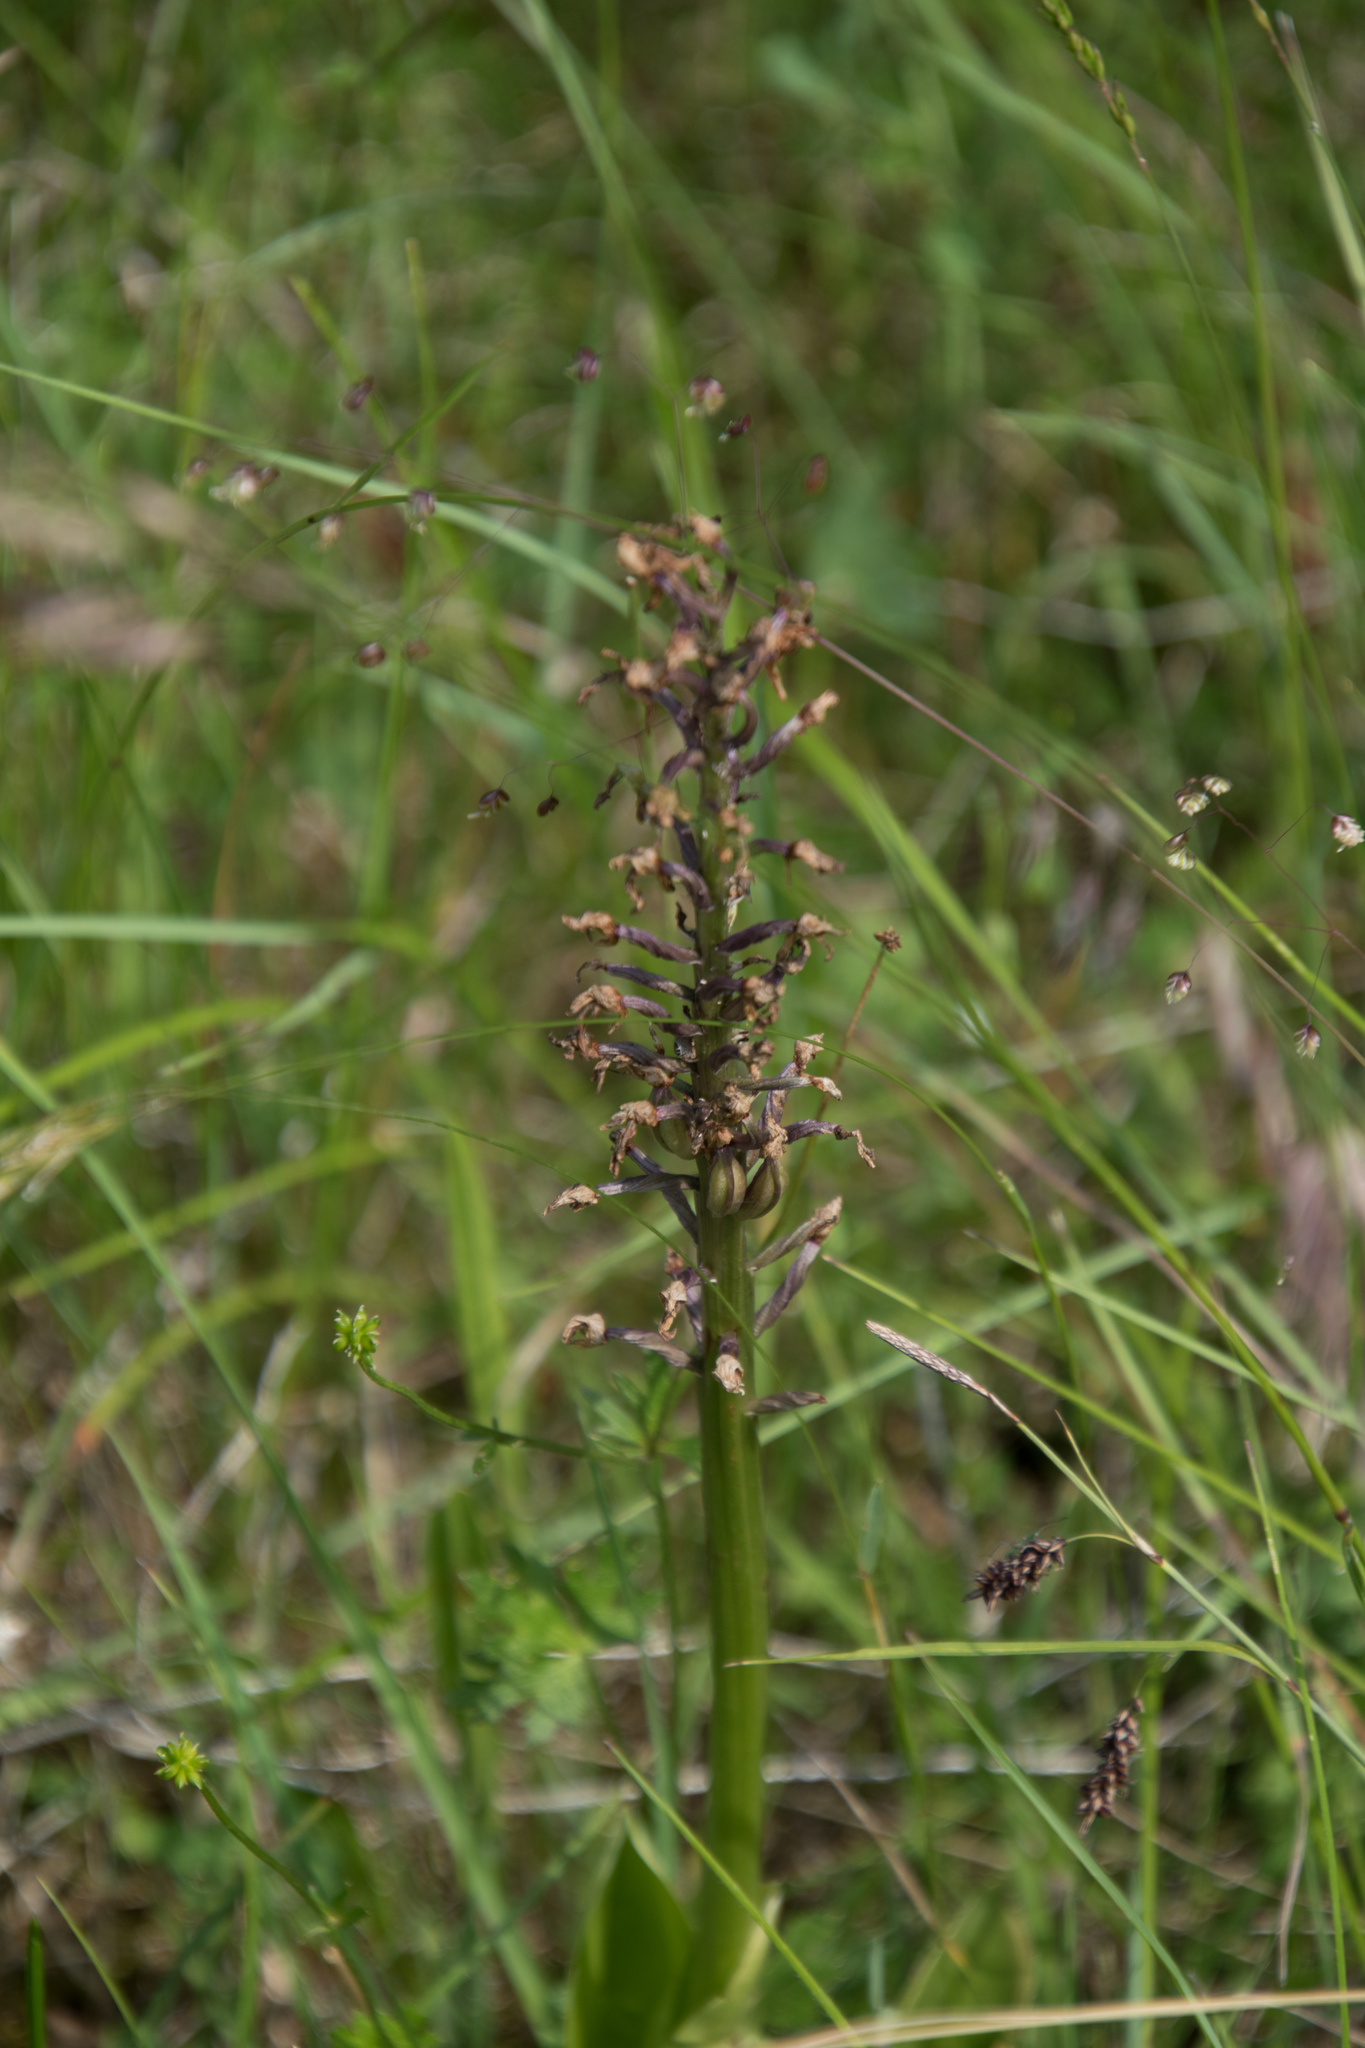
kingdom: Plantae
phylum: Tracheophyta
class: Liliopsida
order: Asparagales
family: Orchidaceae
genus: Orchis
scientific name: Orchis militaris
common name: Military orchid
